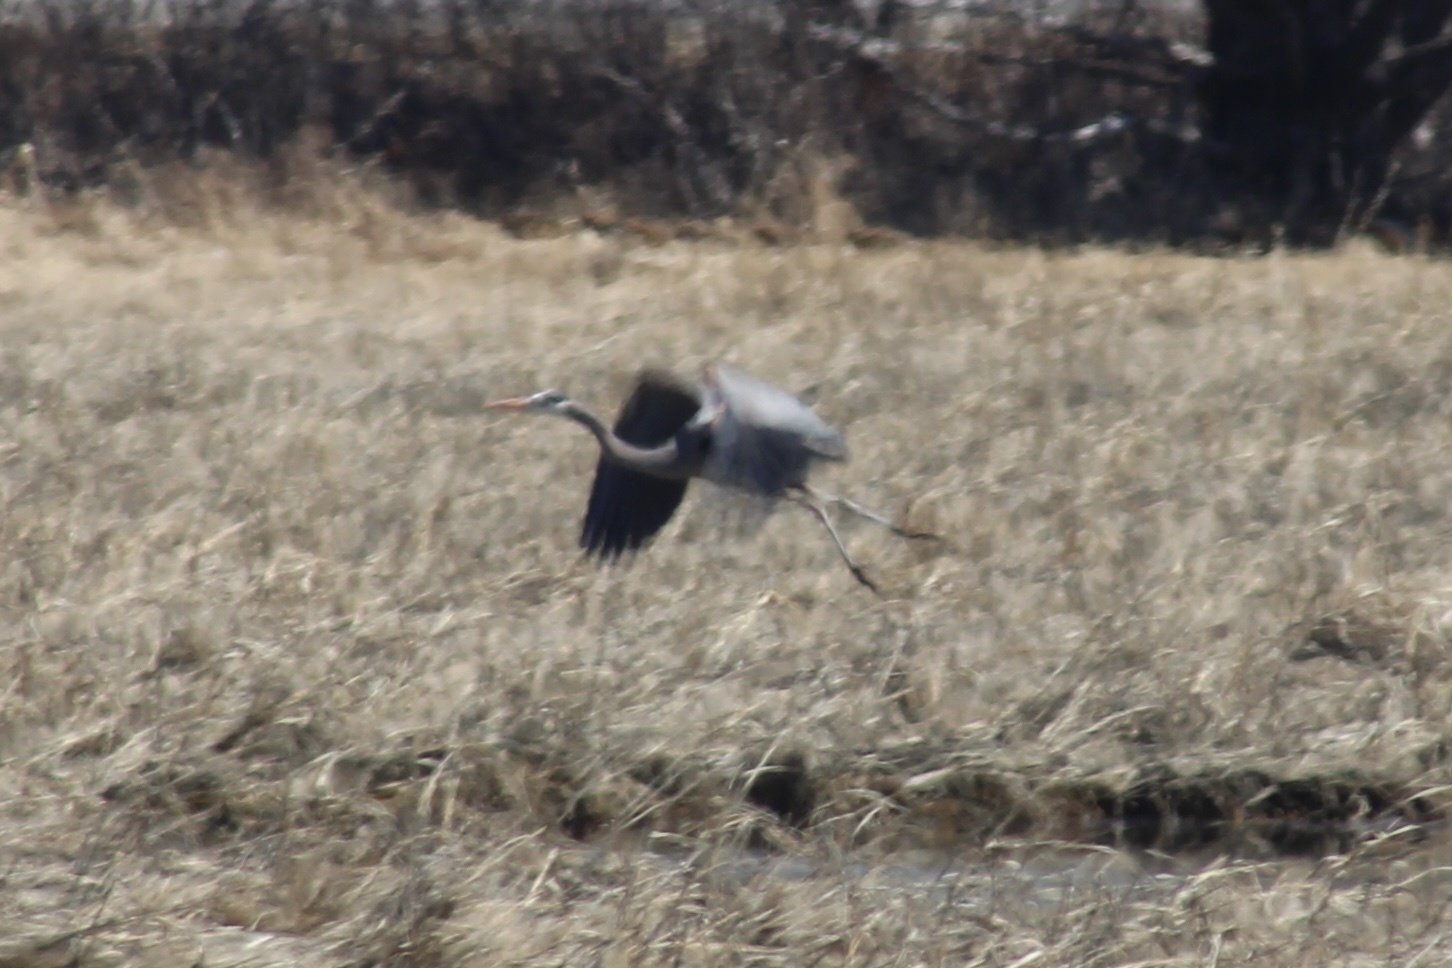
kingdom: Animalia
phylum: Chordata
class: Aves
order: Pelecaniformes
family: Ardeidae
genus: Ardea
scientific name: Ardea herodias
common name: Great blue heron
